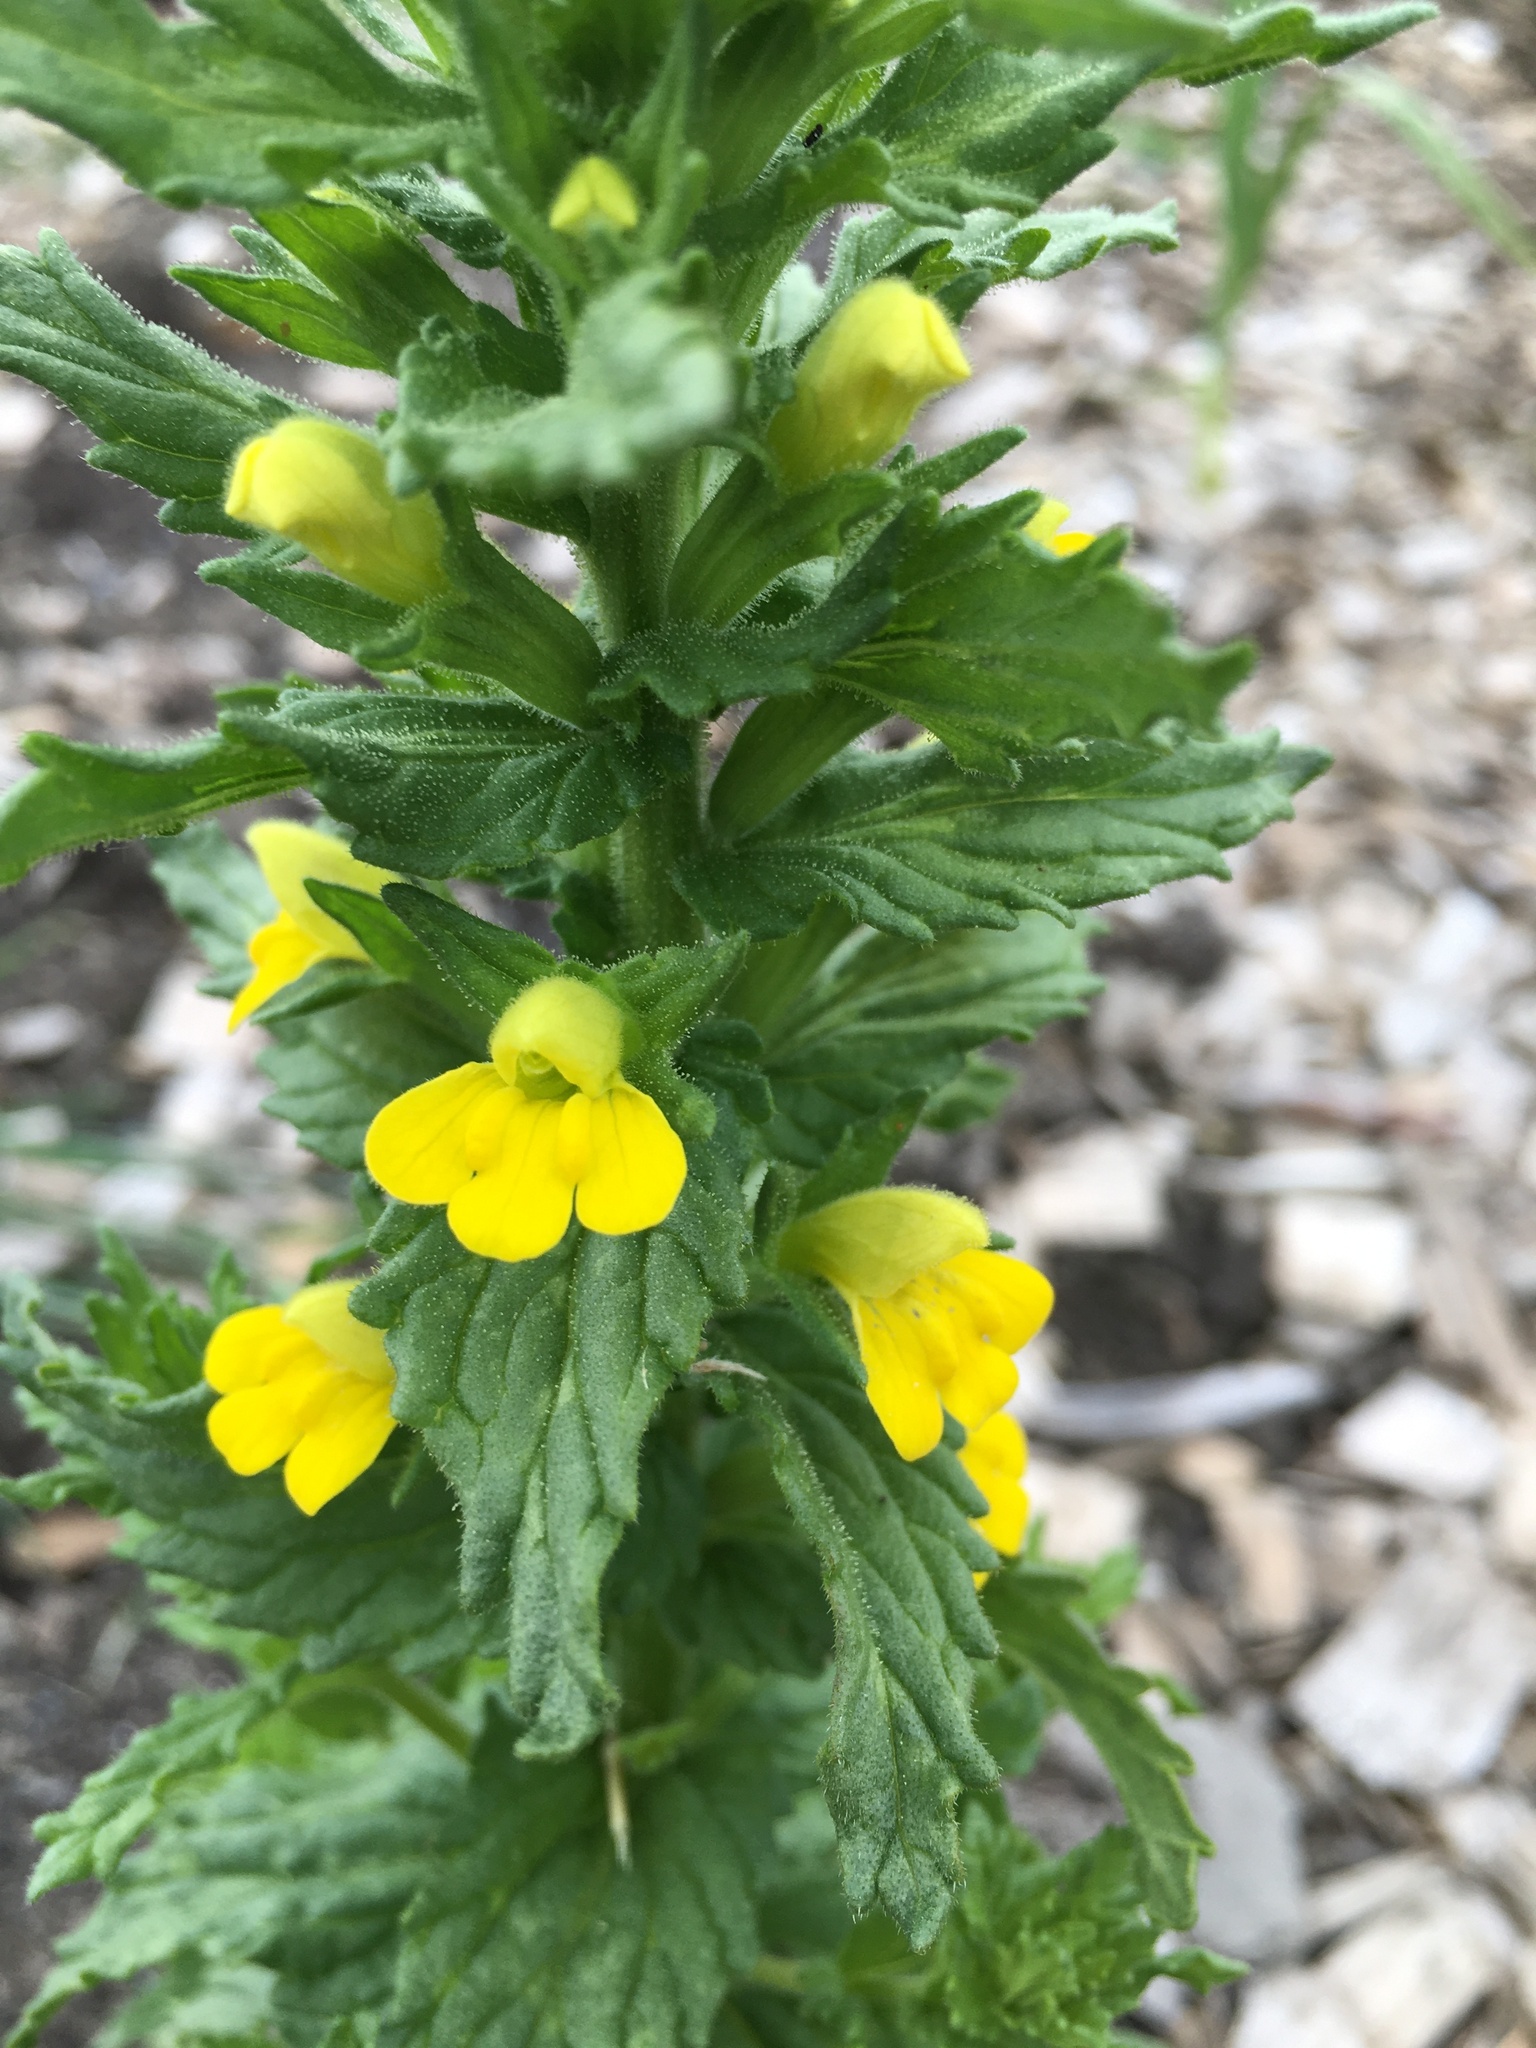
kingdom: Plantae
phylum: Tracheophyta
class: Magnoliopsida
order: Lamiales
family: Orobanchaceae
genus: Bellardia
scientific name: Bellardia viscosa
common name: Sticky parentucellia
